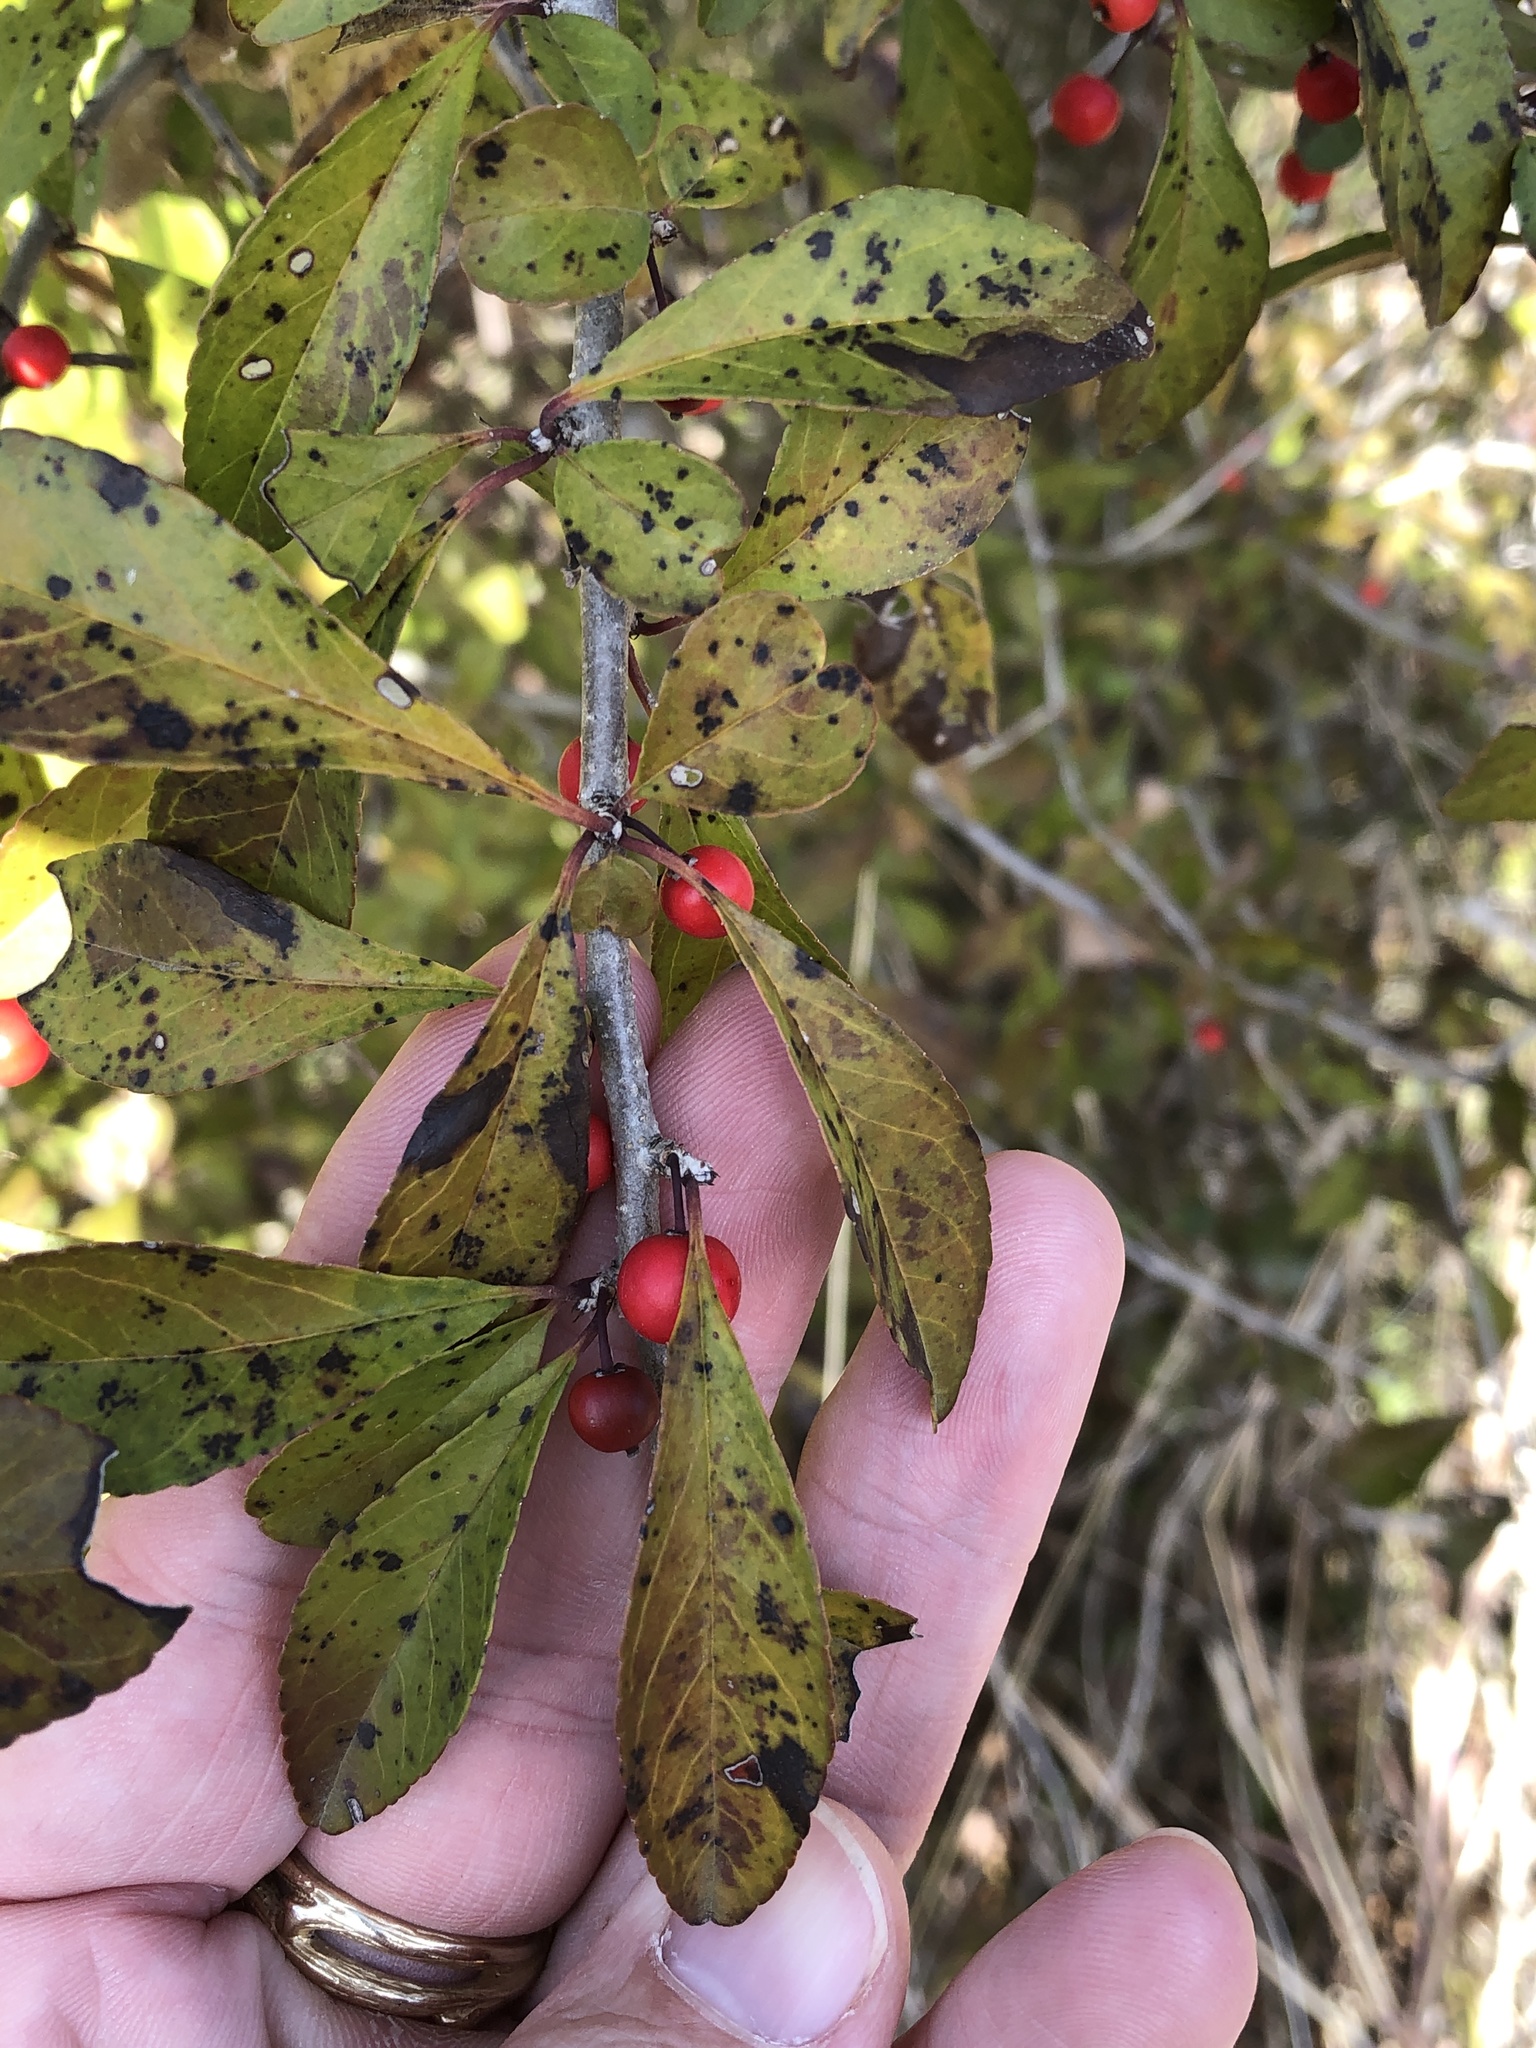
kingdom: Plantae
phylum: Tracheophyta
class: Magnoliopsida
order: Aquifoliales
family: Aquifoliaceae
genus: Ilex
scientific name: Ilex decidua
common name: Possum-haw
